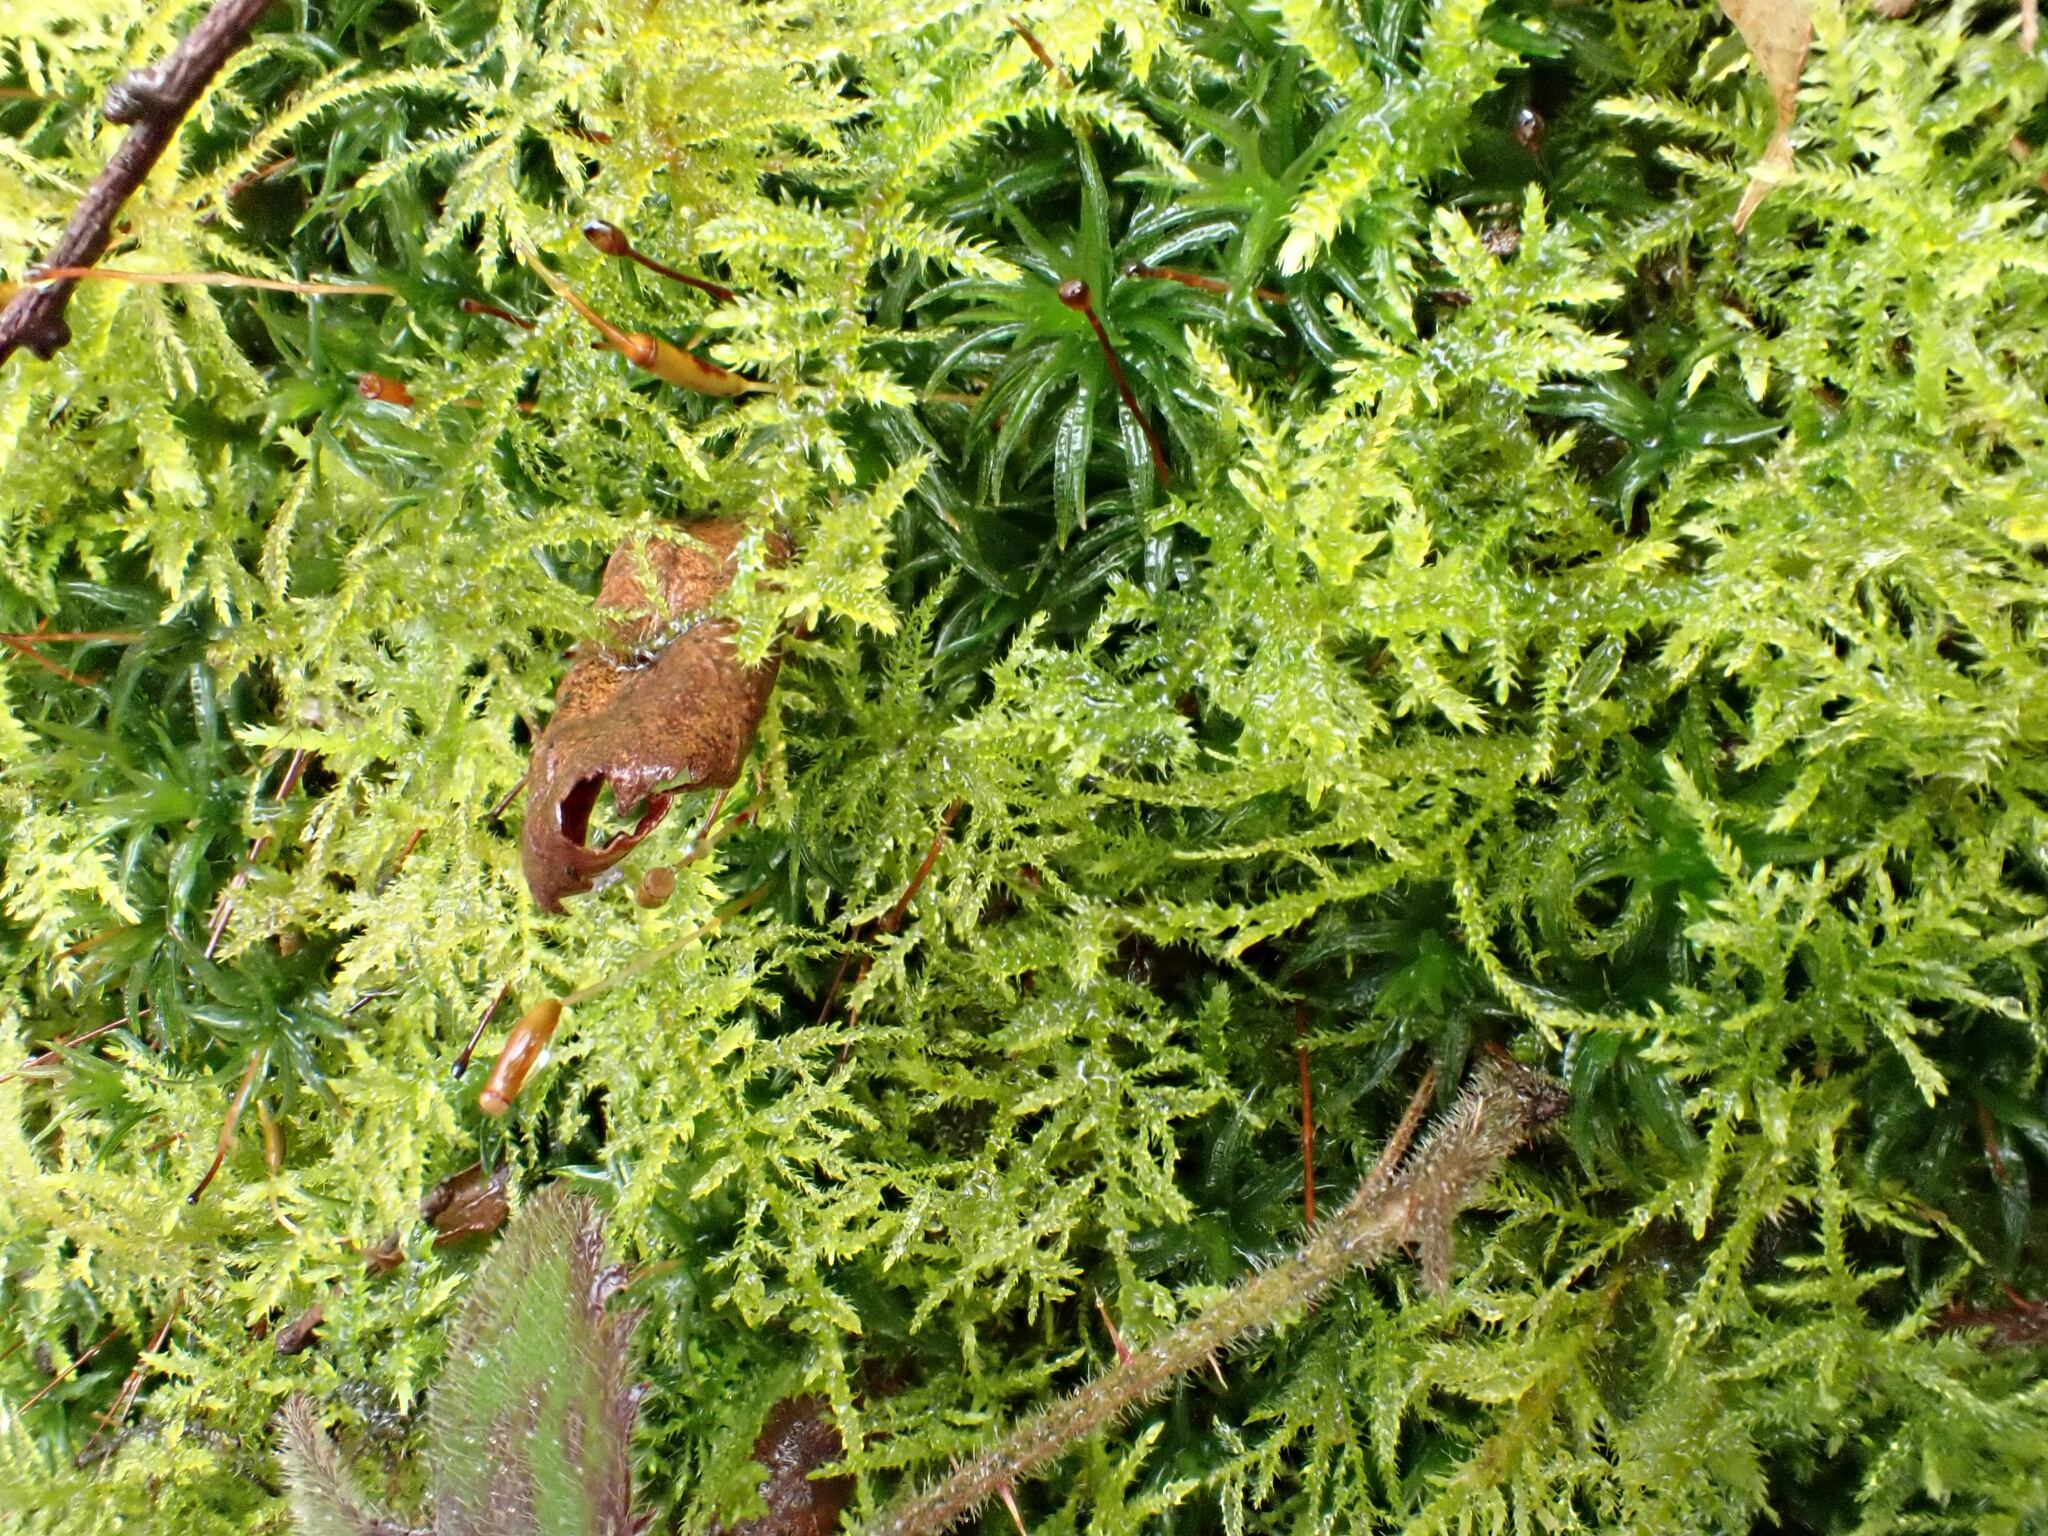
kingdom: Plantae
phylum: Bryophyta
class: Bryopsida
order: Hypnales
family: Brachytheciaceae
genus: Kindbergia
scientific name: Kindbergia praelonga
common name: Slender beaked moss
